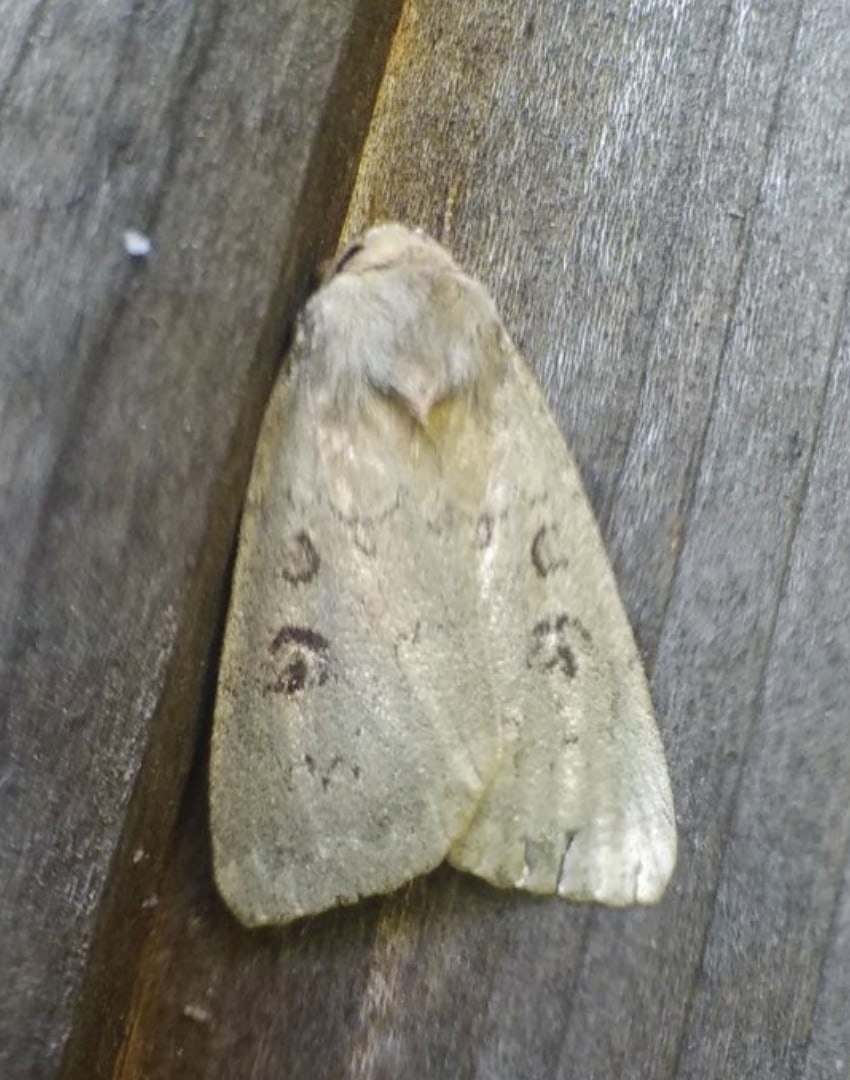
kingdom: Animalia
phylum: Arthropoda
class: Insecta
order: Lepidoptera
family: Noctuidae
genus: Graphiphora
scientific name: Graphiphora augur
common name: Double dart
